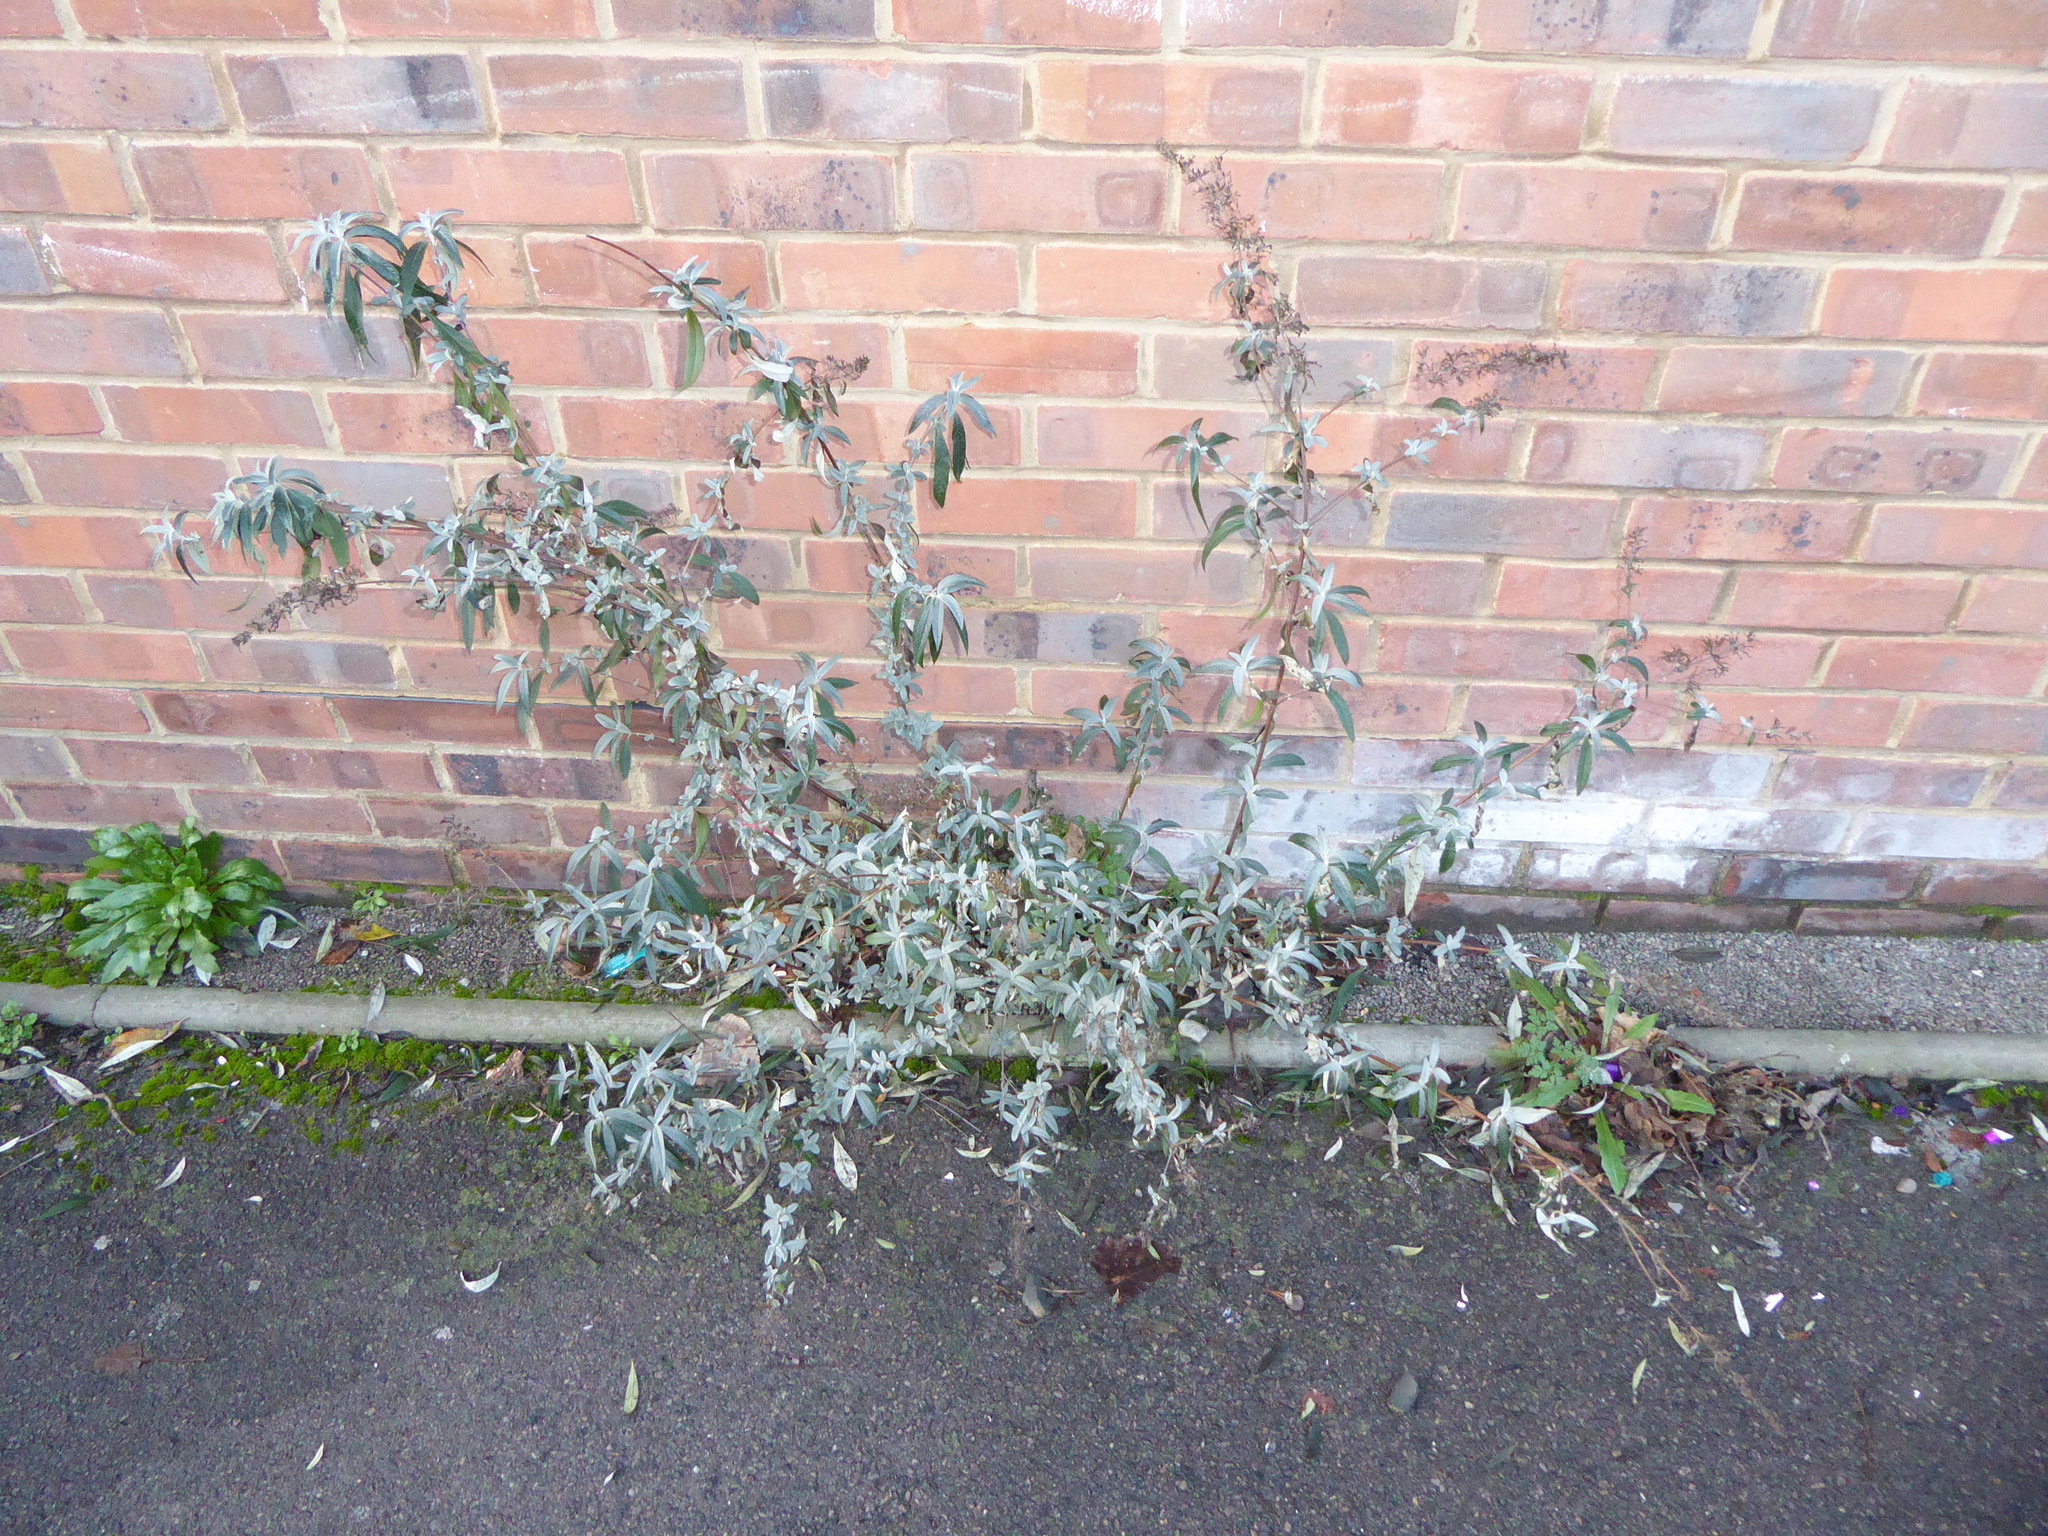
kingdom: Plantae
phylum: Tracheophyta
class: Magnoliopsida
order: Lamiales
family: Scrophulariaceae
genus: Buddleja
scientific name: Buddleja davidii
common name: Butterfly-bush
